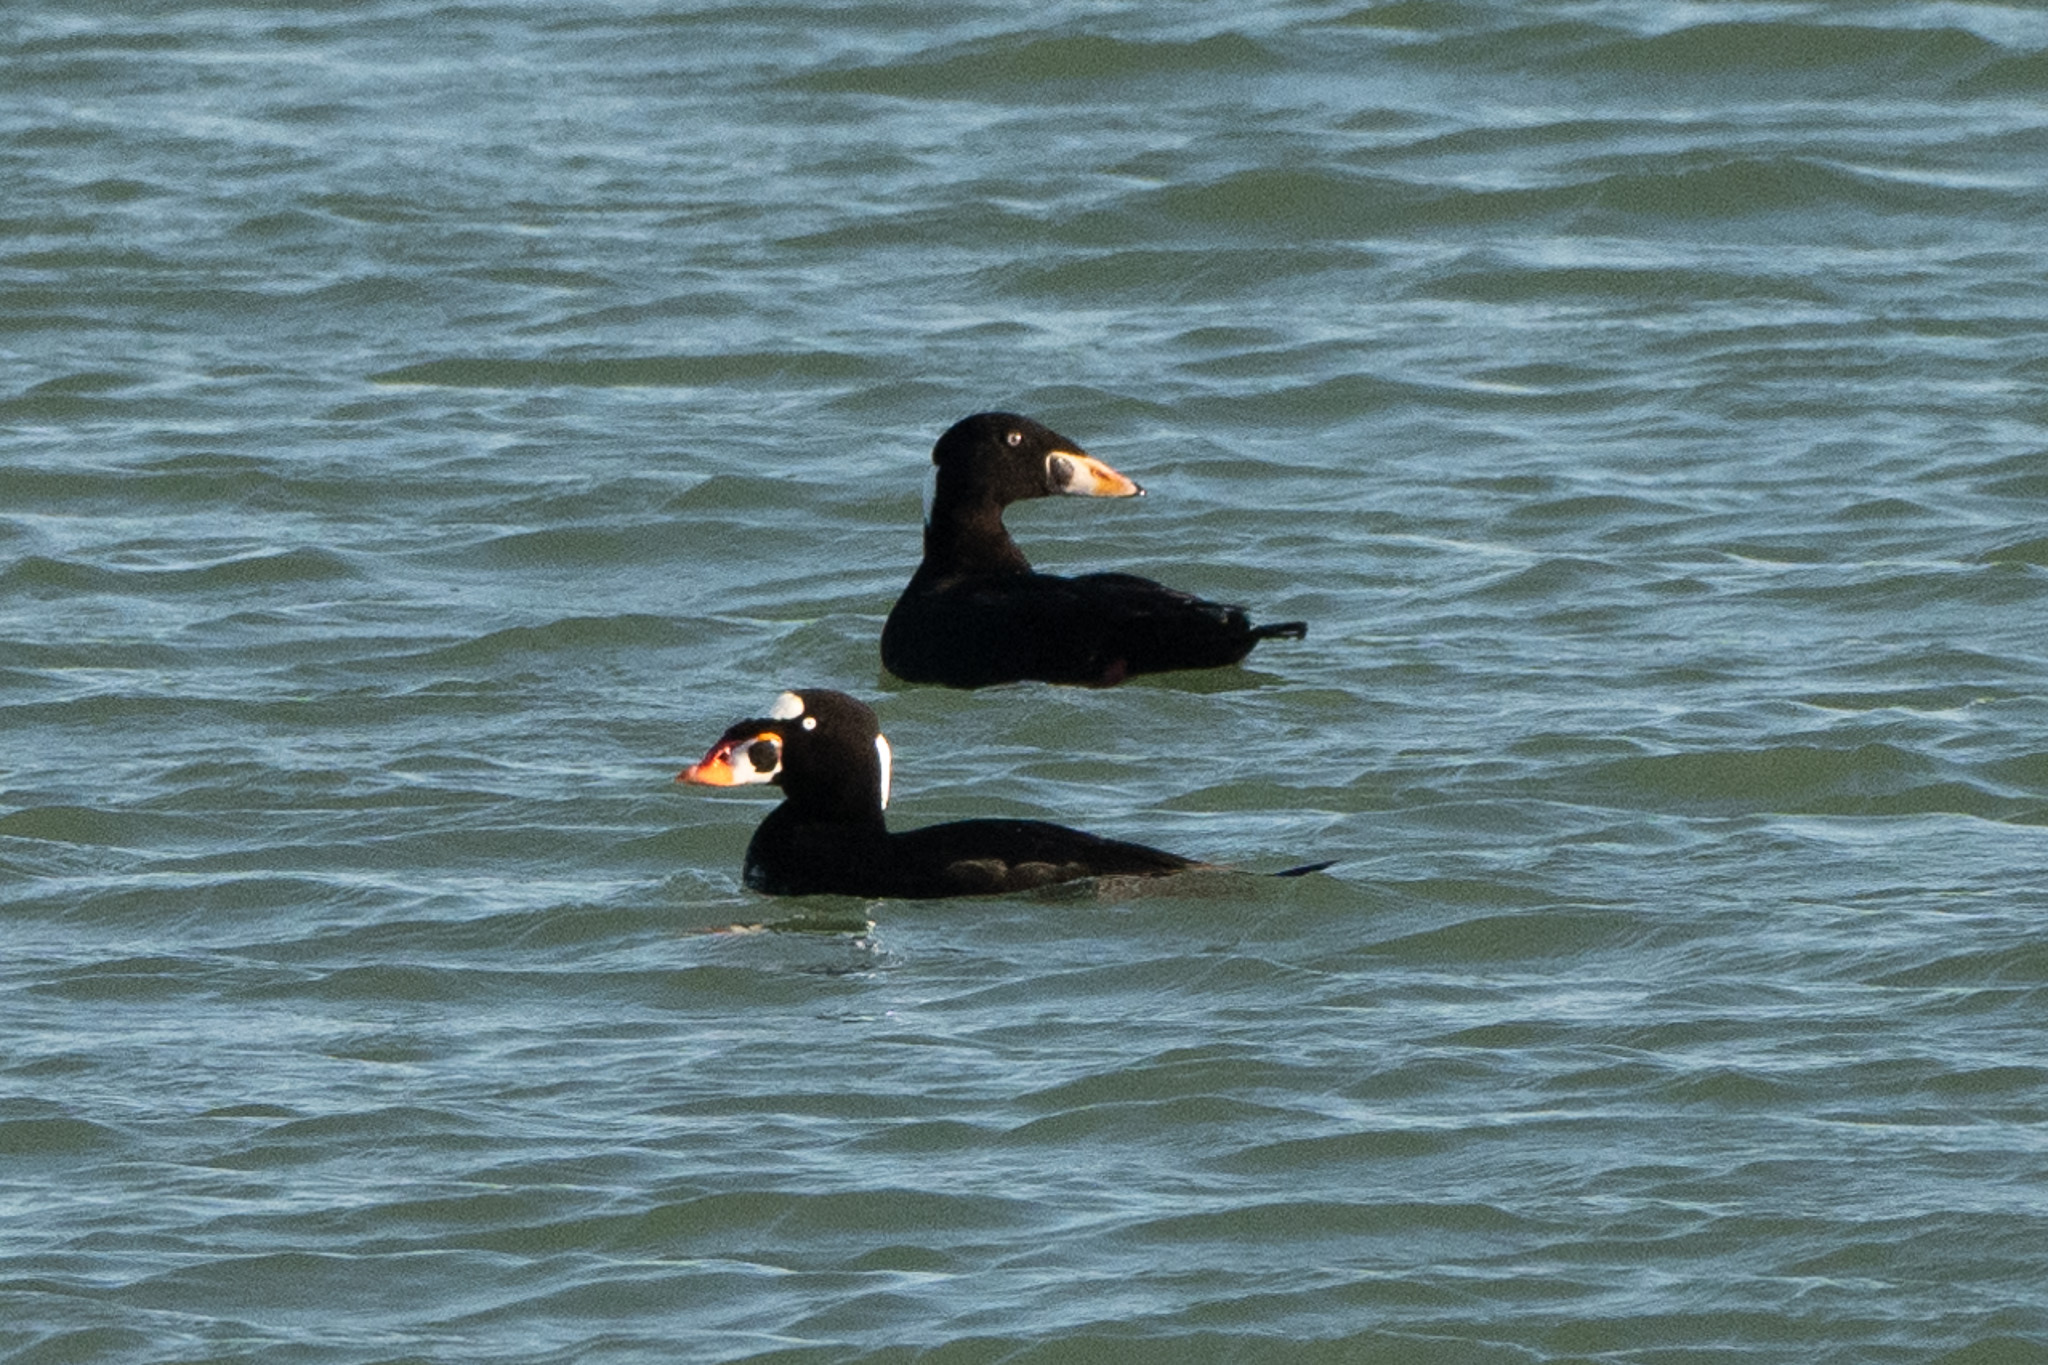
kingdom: Animalia
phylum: Chordata
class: Aves
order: Anseriformes
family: Anatidae
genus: Melanitta
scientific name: Melanitta perspicillata
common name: Surf scoter
